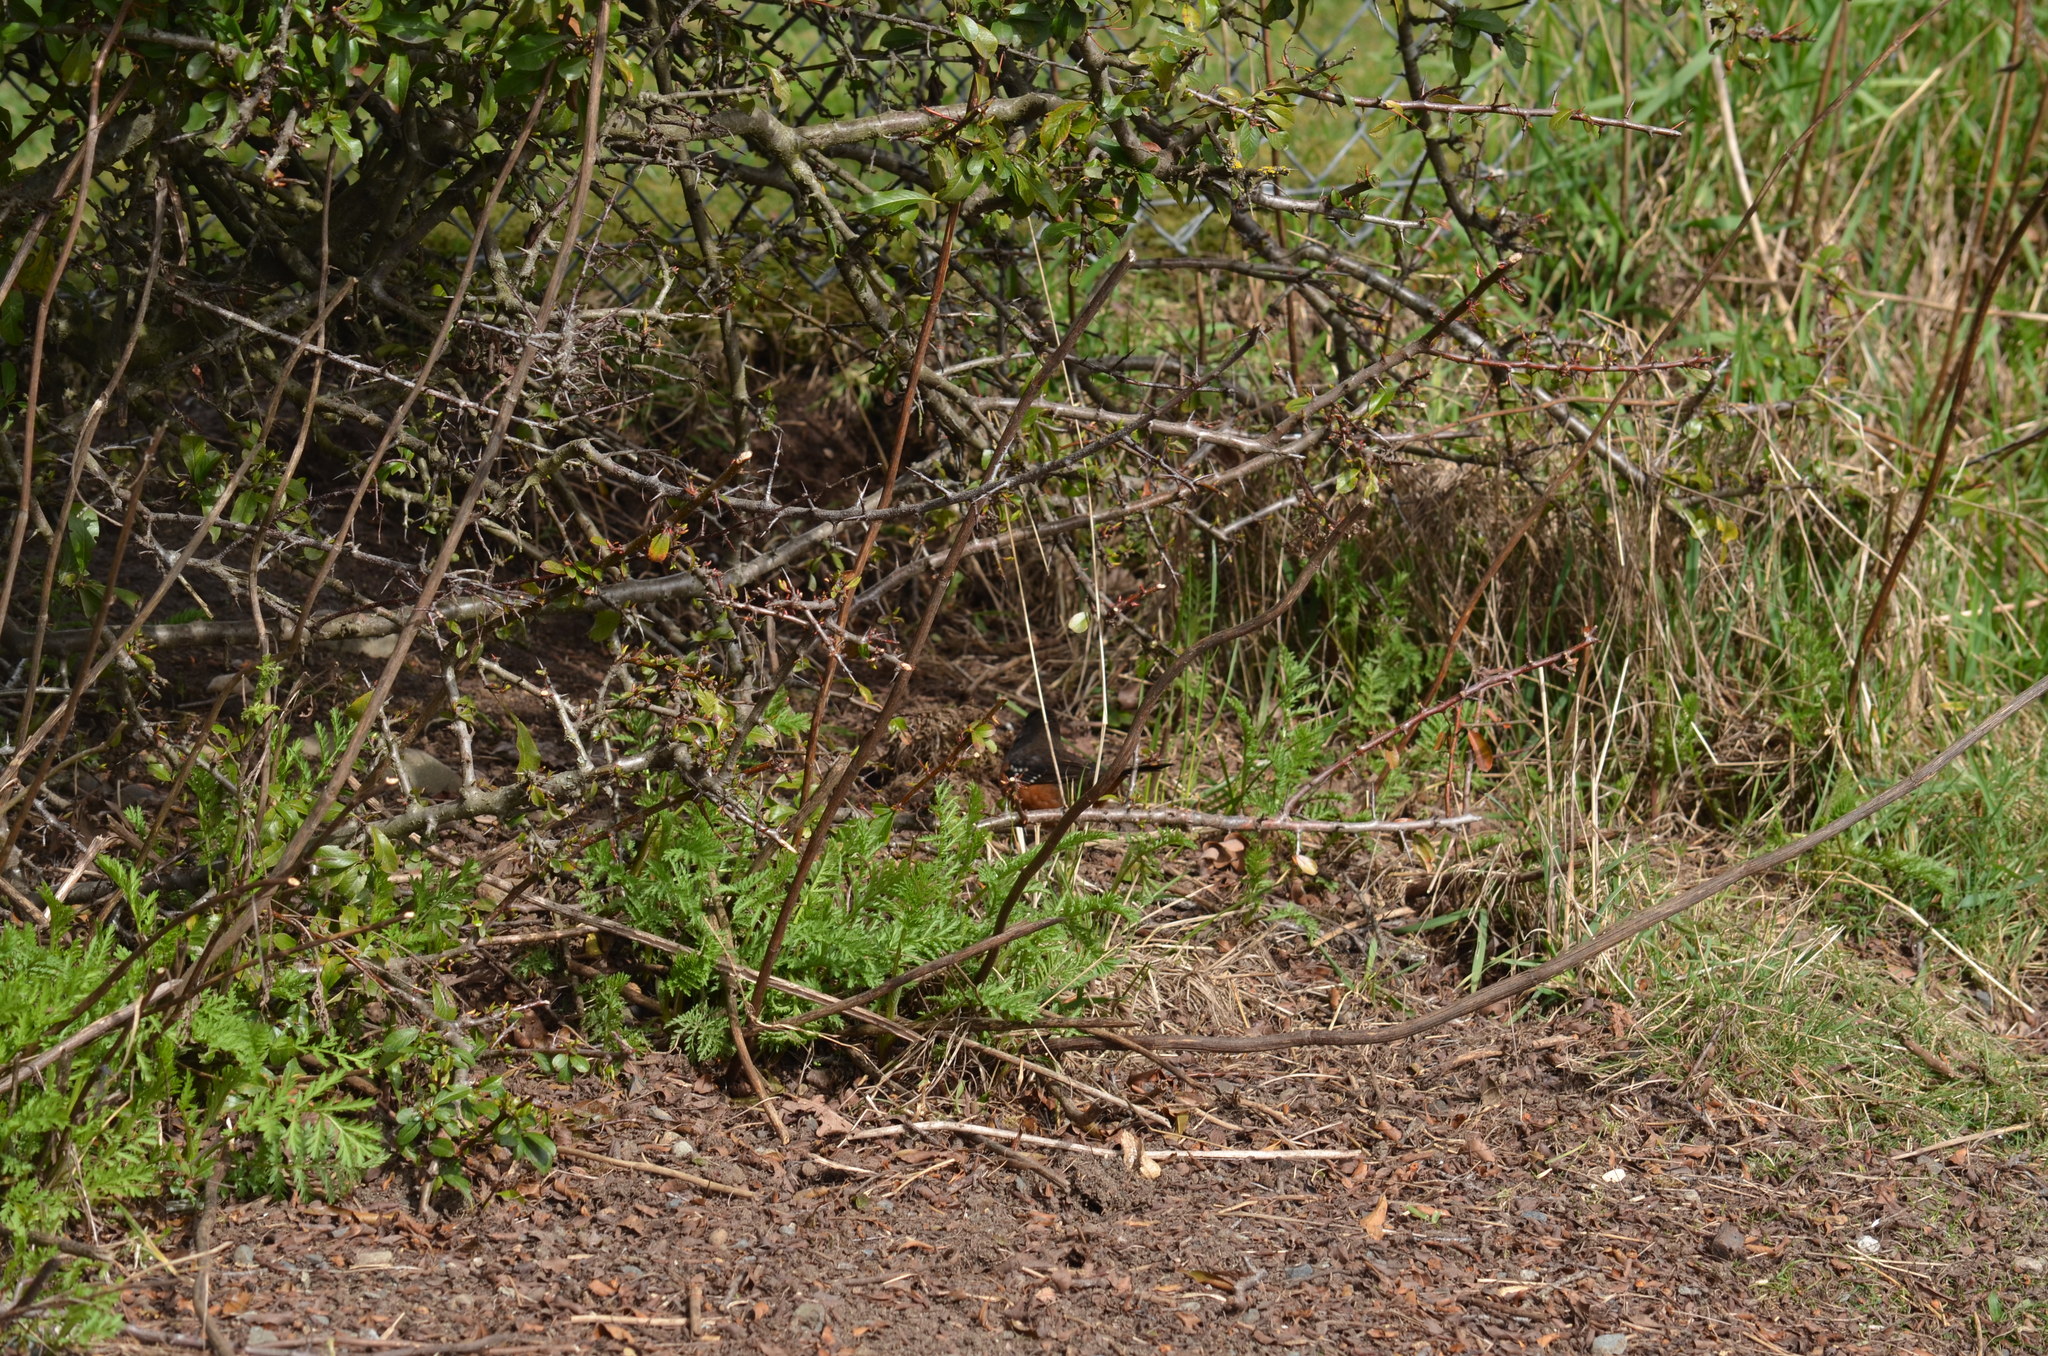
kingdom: Animalia
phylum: Chordata
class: Aves
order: Passeriformes
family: Passerellidae
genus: Pipilo
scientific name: Pipilo maculatus
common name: Spotted towhee
